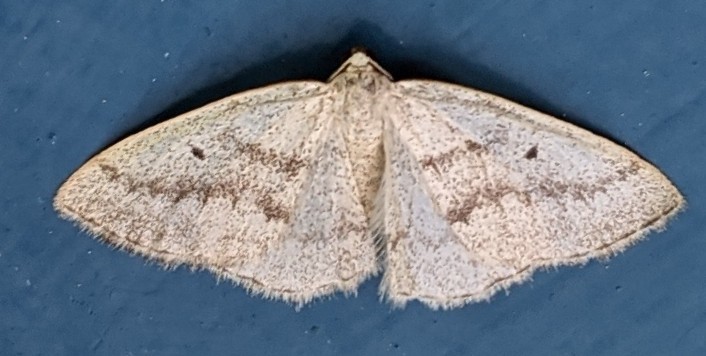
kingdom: Animalia
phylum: Arthropoda
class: Insecta
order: Lepidoptera
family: Geometridae
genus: Lomographa
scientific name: Lomographa glomeraria
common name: Gray spring moth
